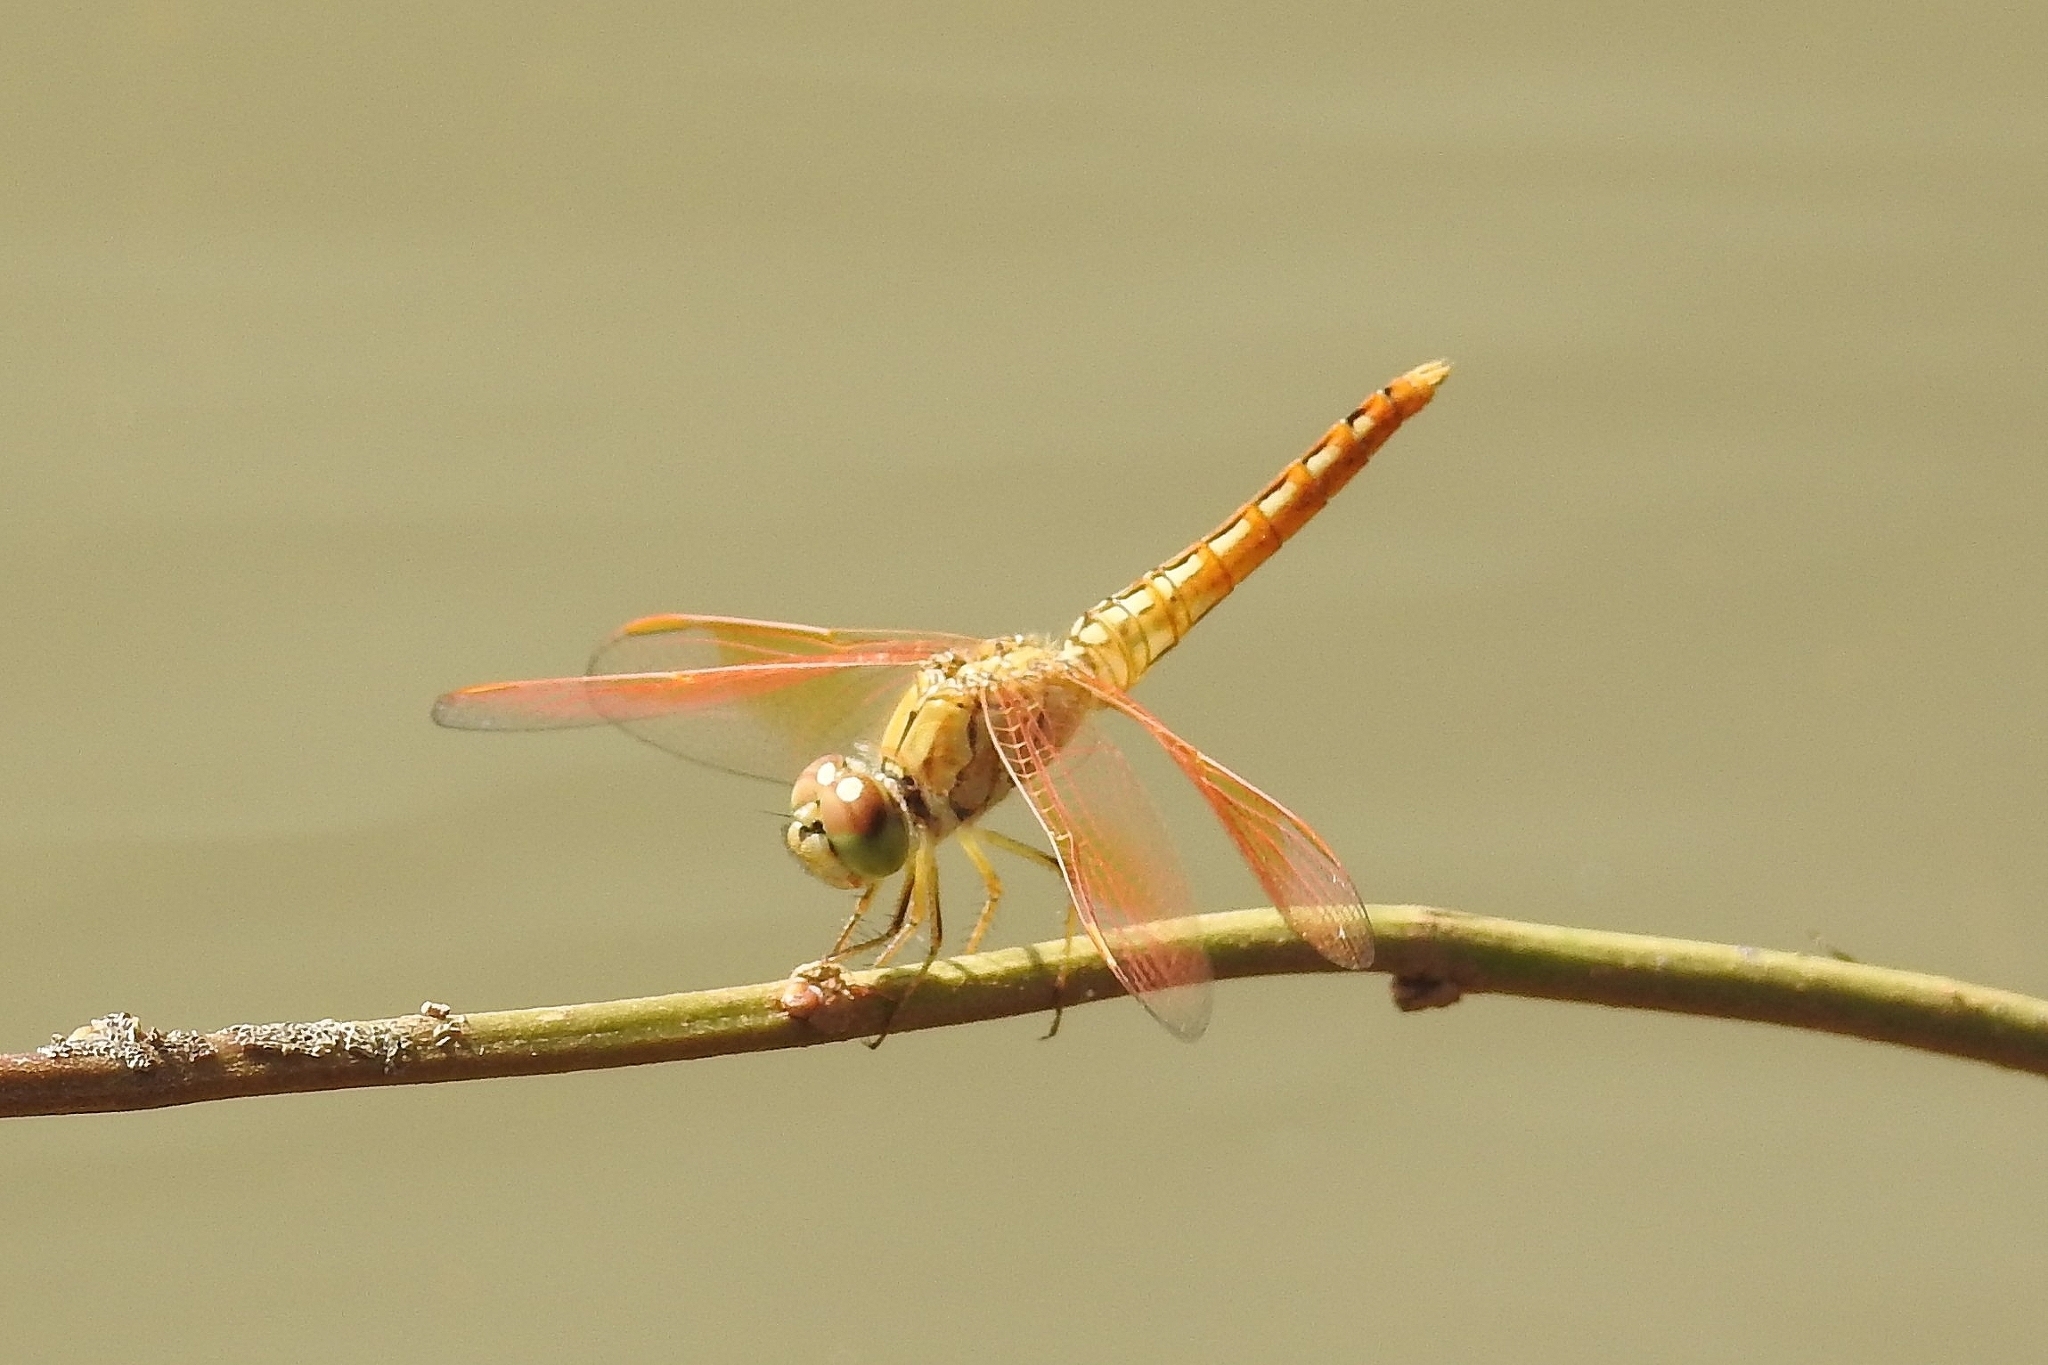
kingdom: Animalia
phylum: Arthropoda
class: Insecta
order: Odonata
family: Libellulidae
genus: Brachythemis
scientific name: Brachythemis contaminata
